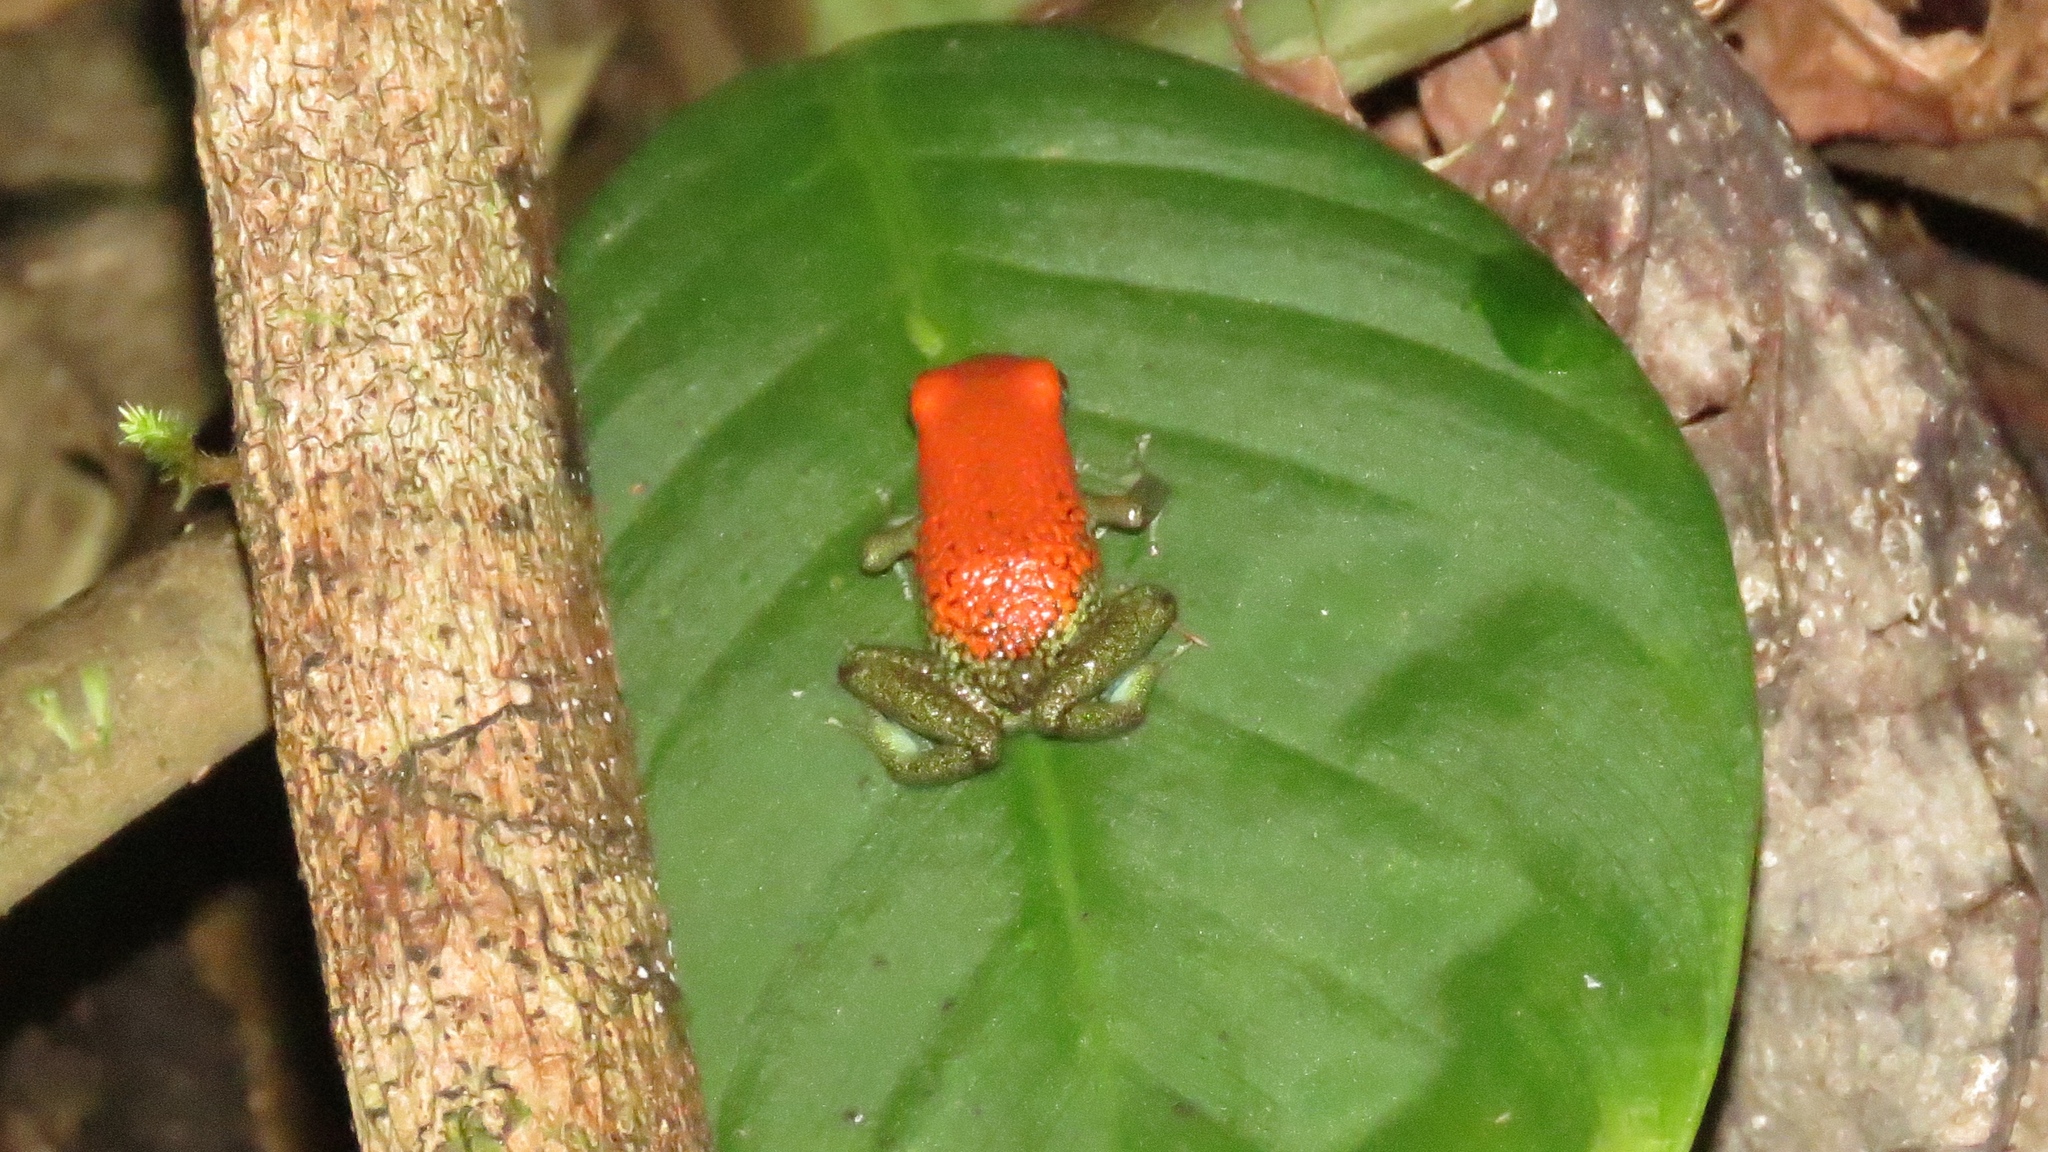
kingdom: Animalia
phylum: Chordata
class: Amphibia
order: Anura
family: Dendrobatidae
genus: Oophaga
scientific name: Oophaga granulifera
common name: Granular poison frog
